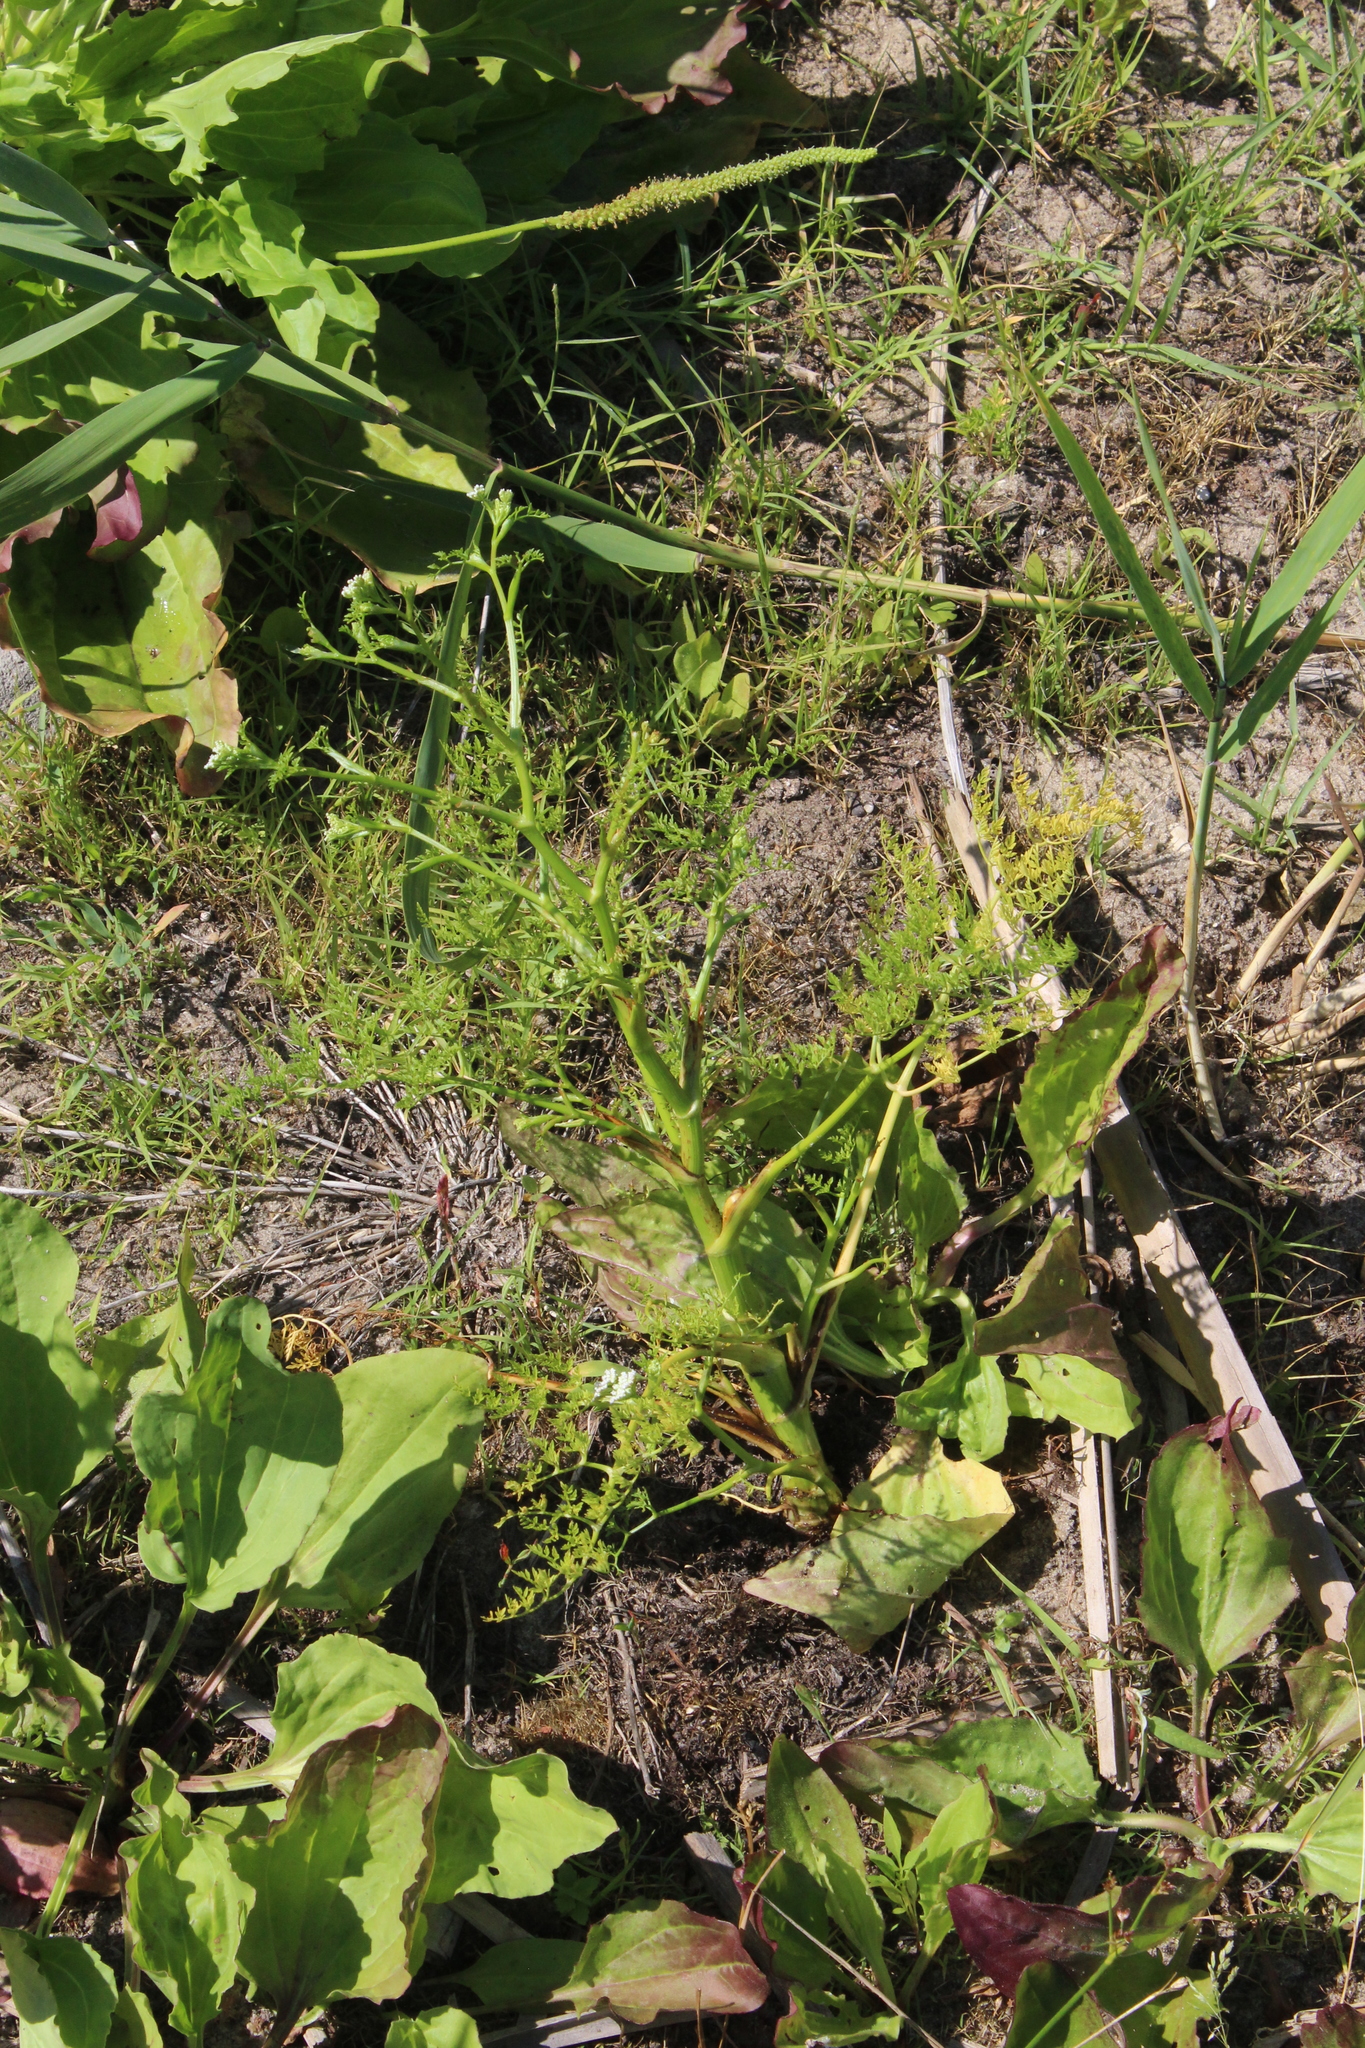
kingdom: Plantae
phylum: Tracheophyta
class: Magnoliopsida
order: Apiales
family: Apiaceae
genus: Oenanthe
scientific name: Oenanthe aquatica
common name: Fine-leaved water-dropwort
